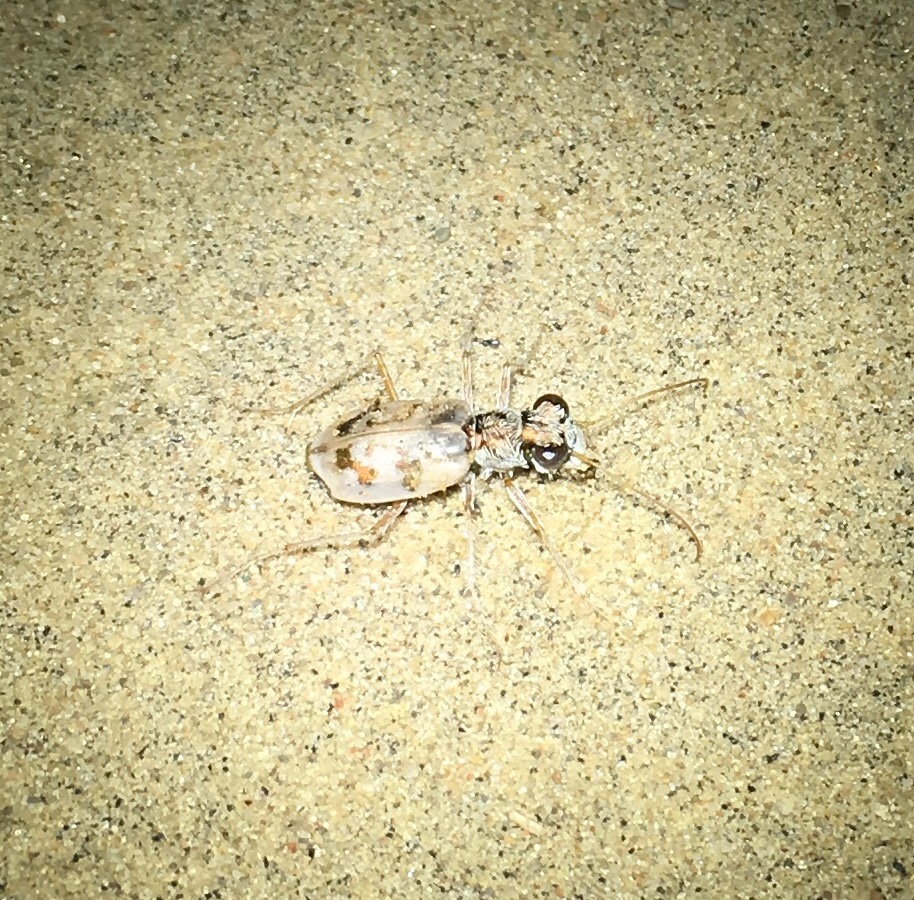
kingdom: Animalia
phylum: Arthropoda
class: Insecta
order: Coleoptera
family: Carabidae
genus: Ellipsoptera
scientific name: Ellipsoptera lepida
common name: Ghost tiger beetle
